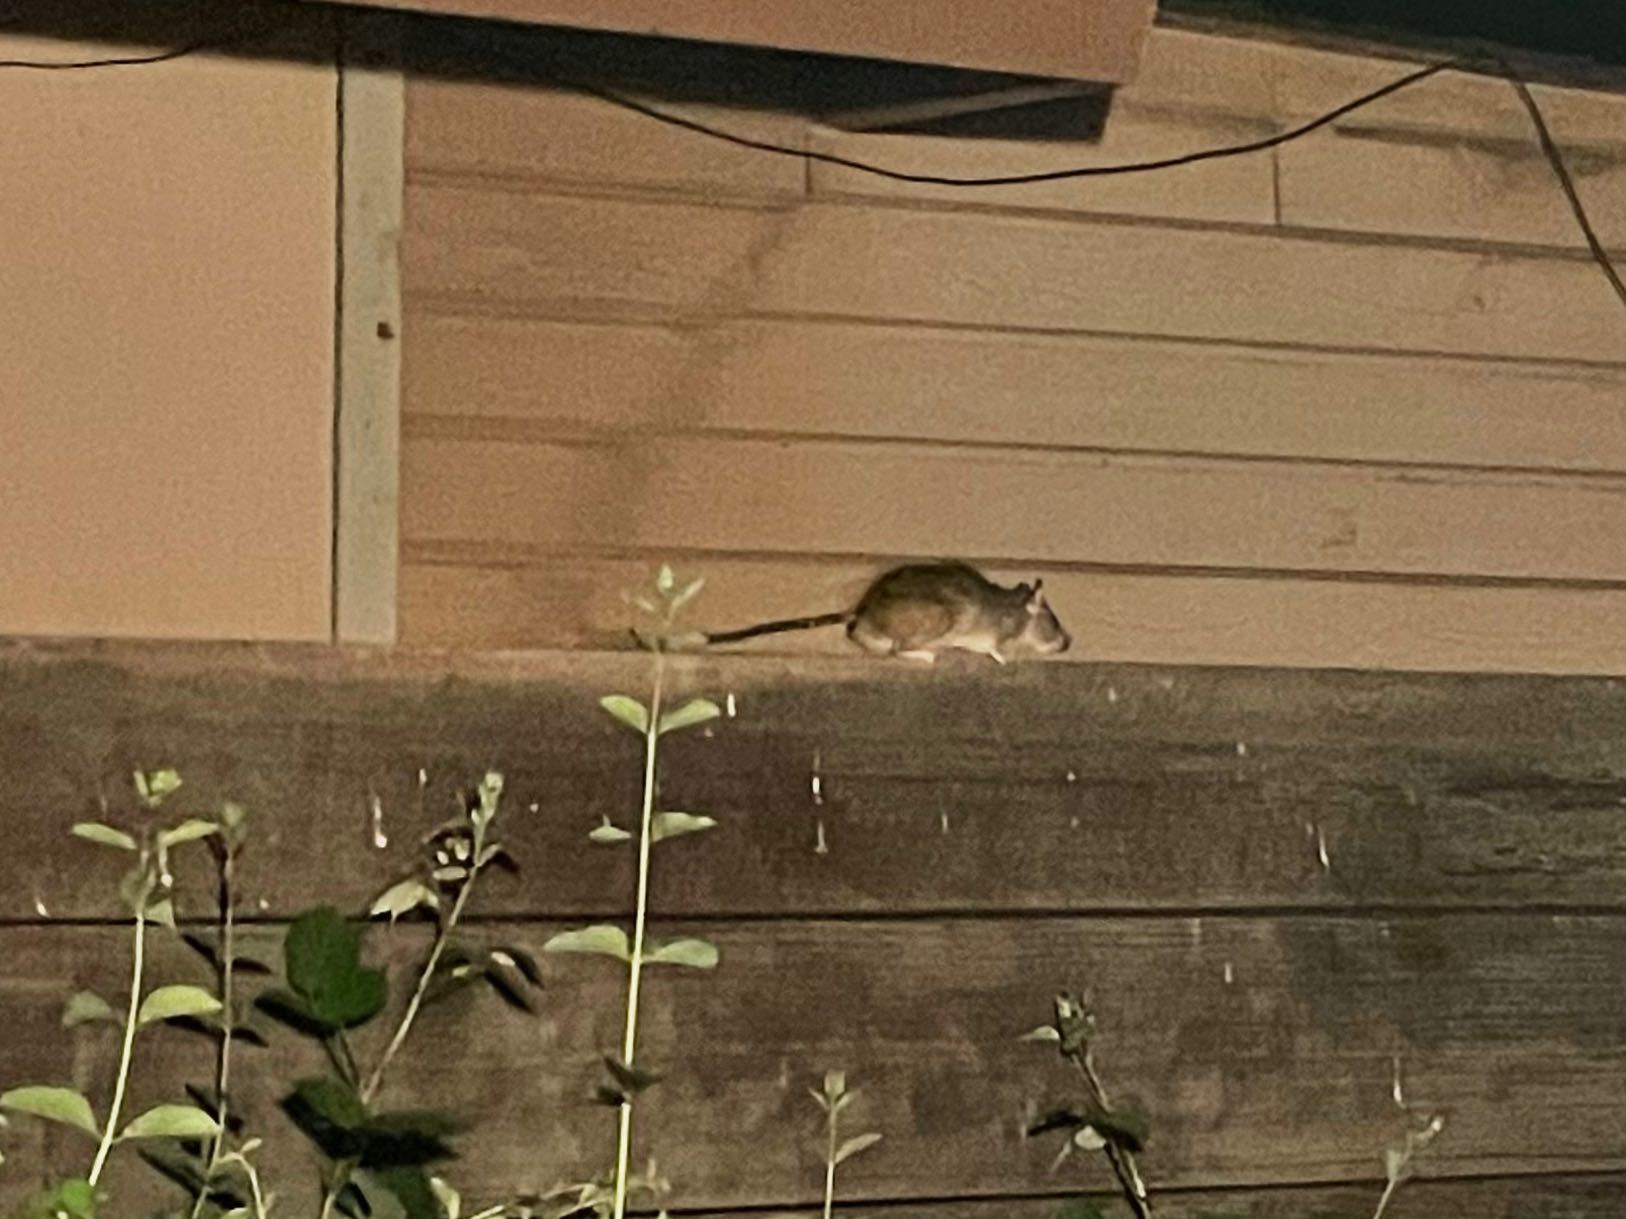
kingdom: Animalia
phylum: Chordata
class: Mammalia
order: Rodentia
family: Muridae
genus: Rattus
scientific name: Rattus rattus
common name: Black rat
